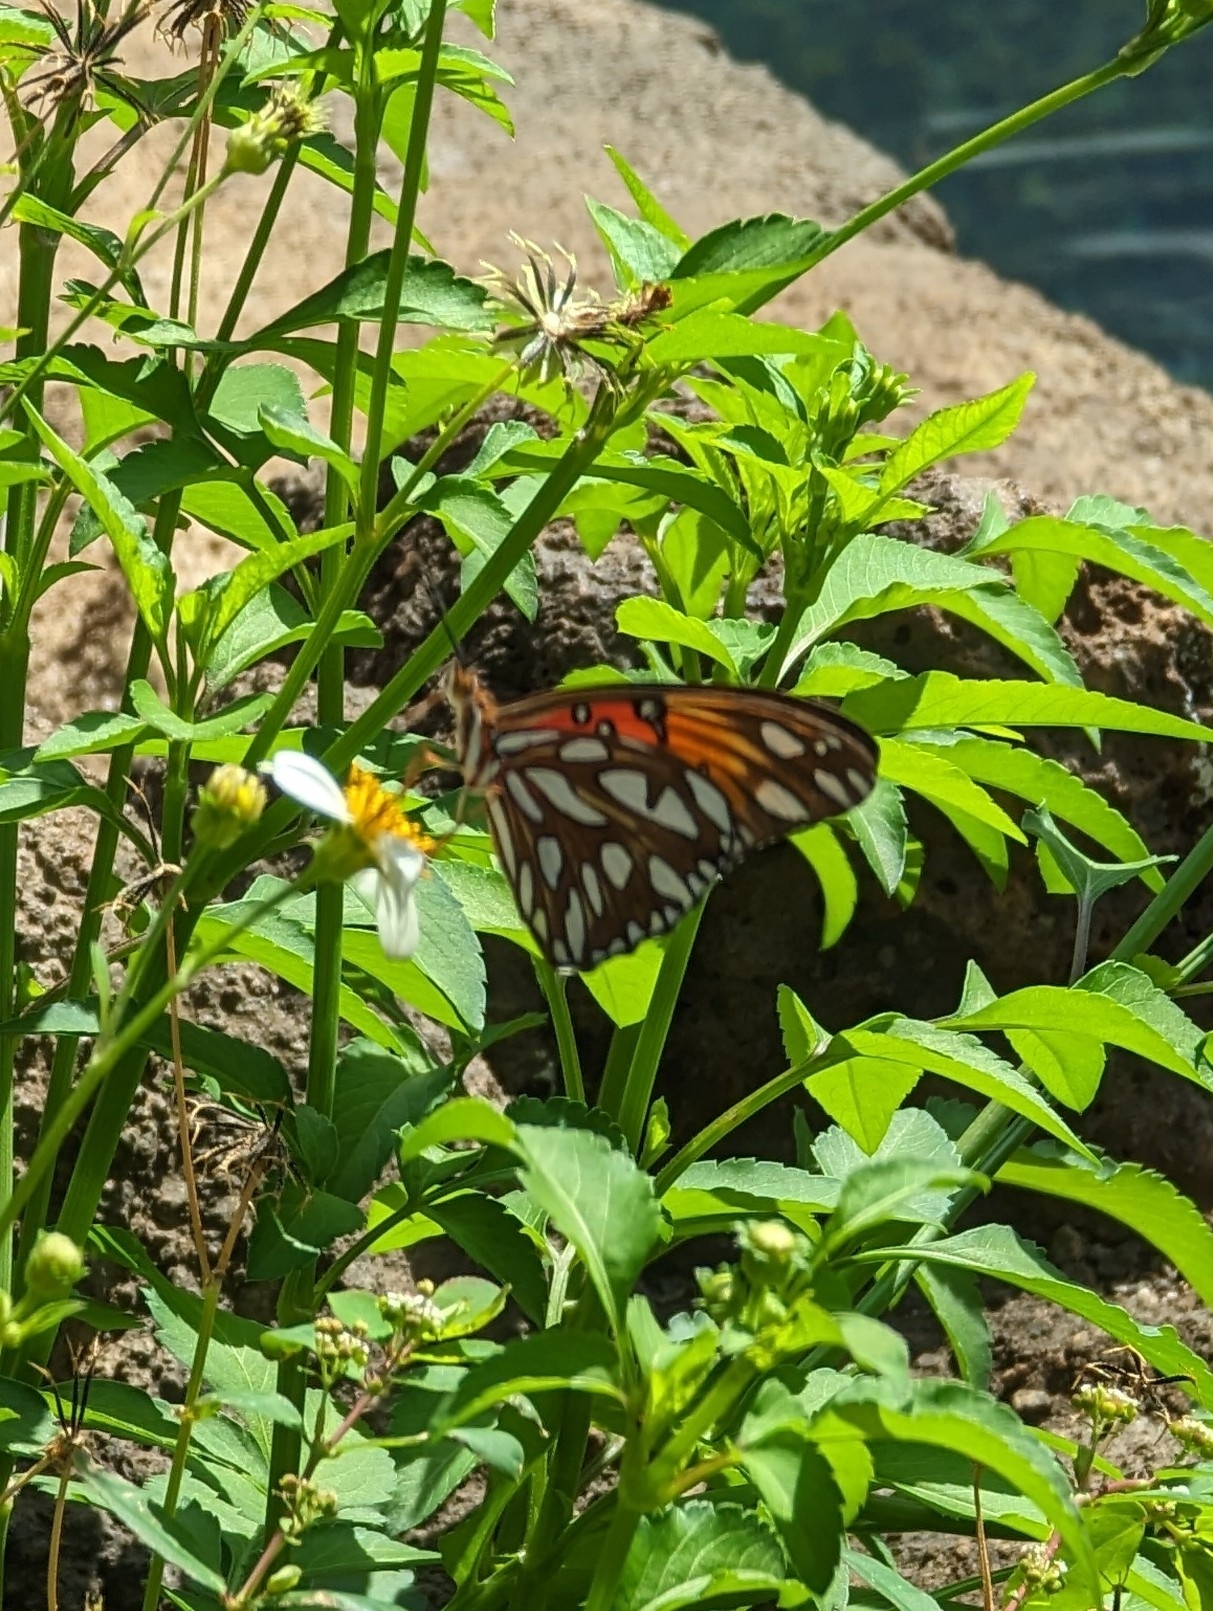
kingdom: Animalia
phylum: Arthropoda
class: Insecta
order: Lepidoptera
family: Nymphalidae
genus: Dione
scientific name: Dione vanillae
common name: Gulf fritillary
